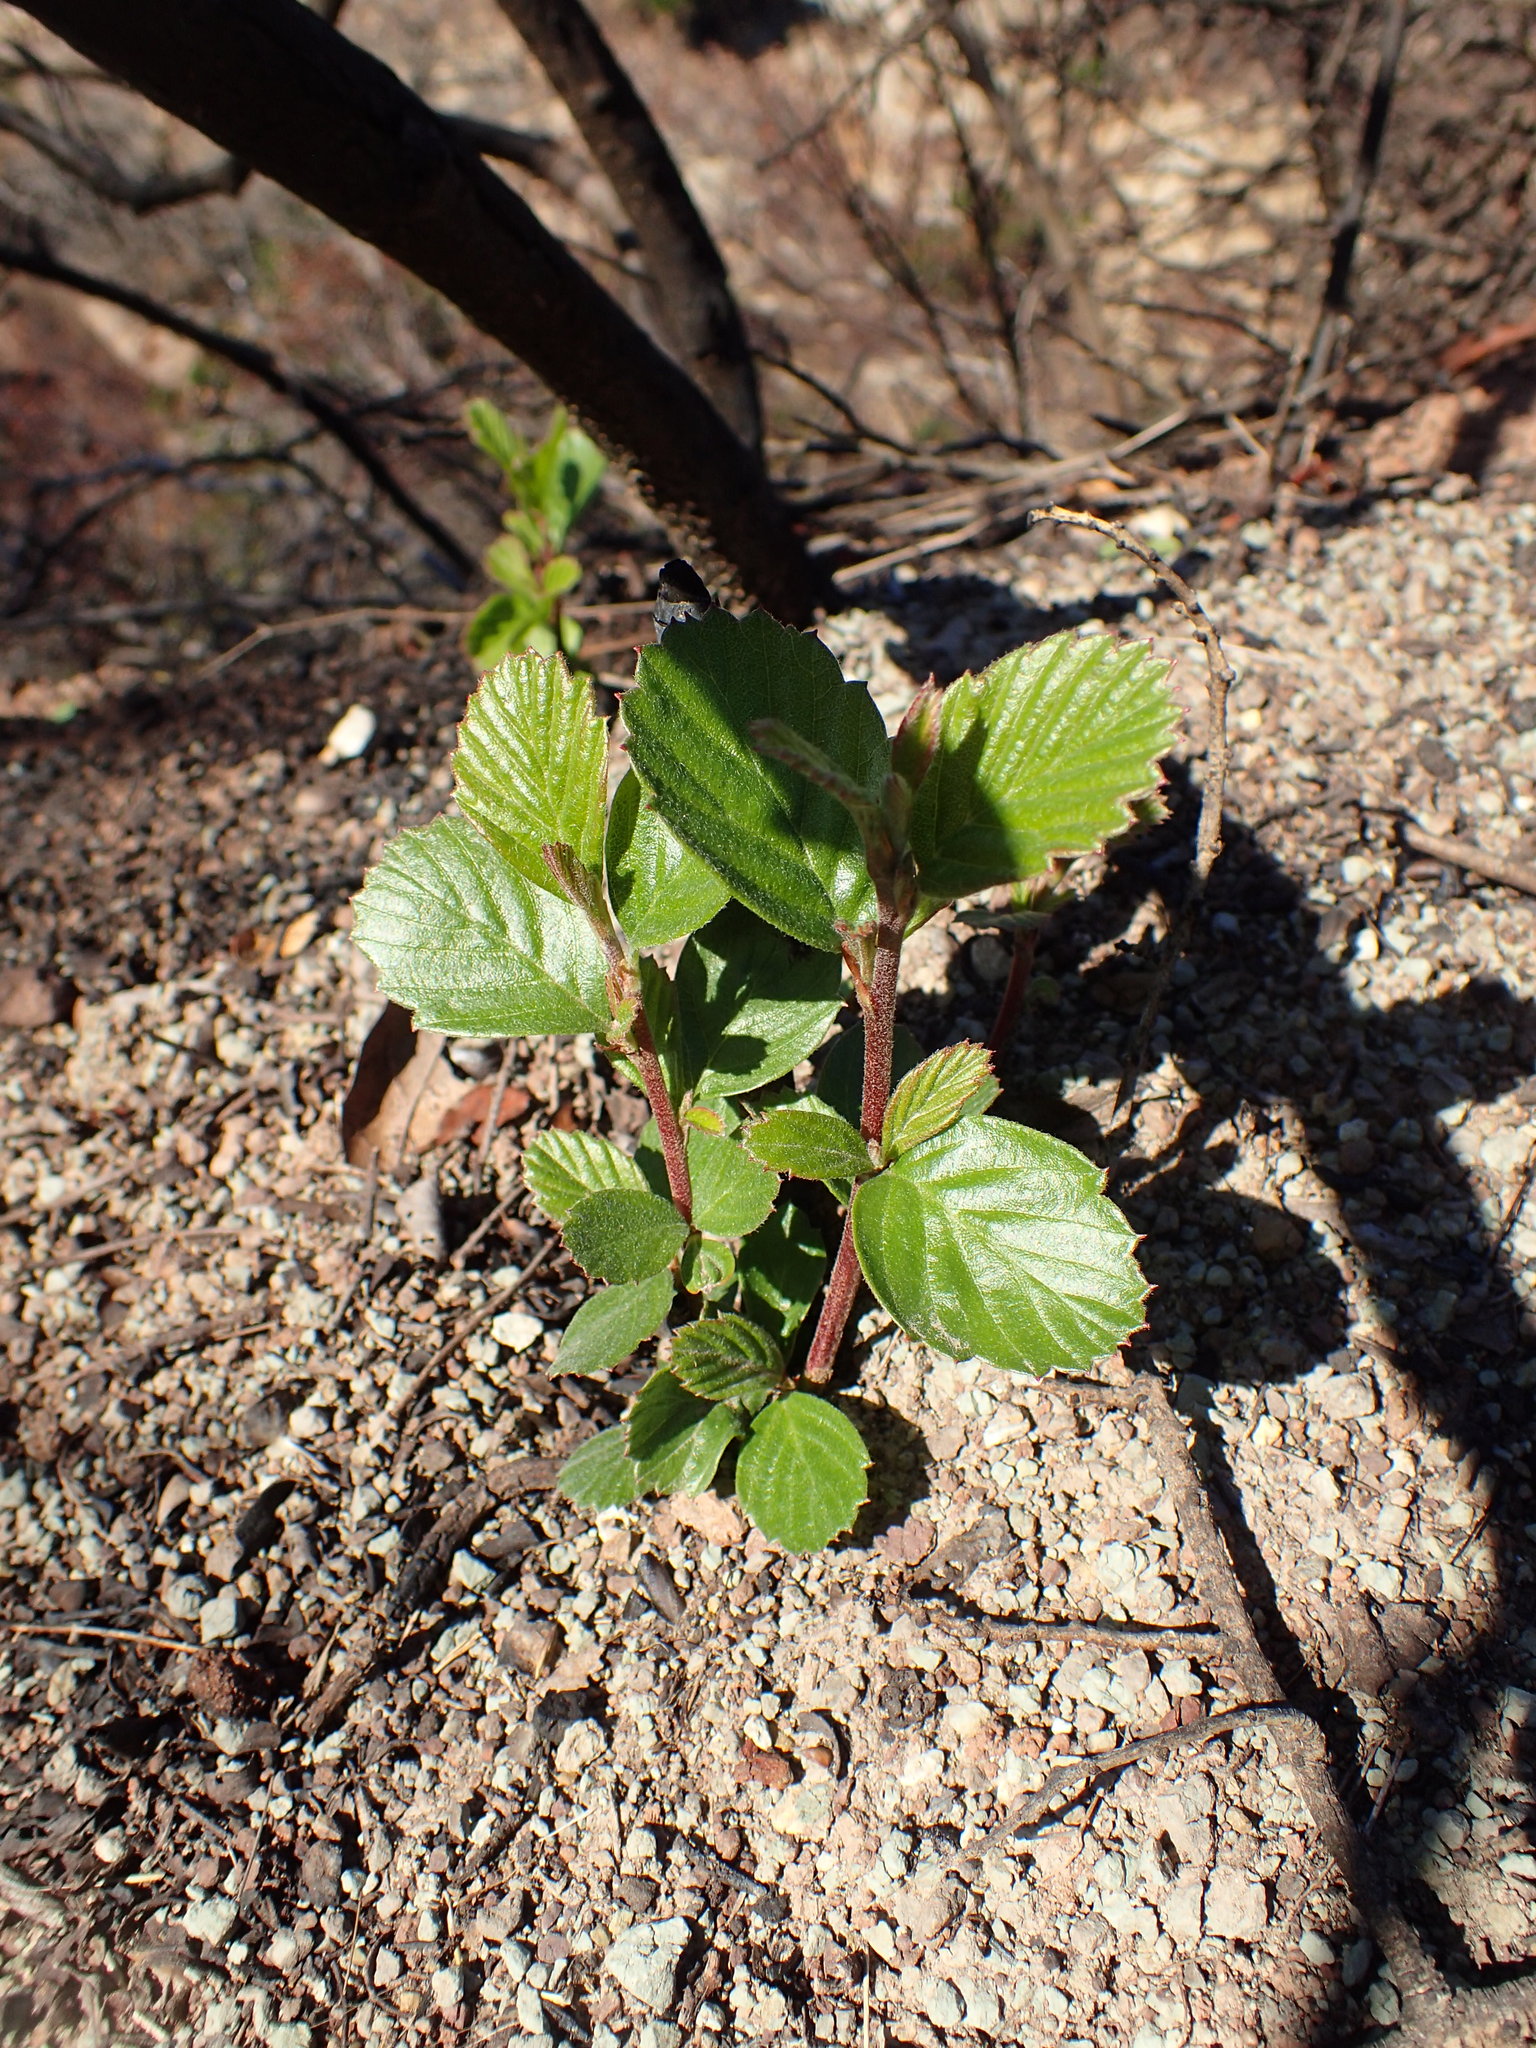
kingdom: Plantae
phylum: Tracheophyta
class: Magnoliopsida
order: Rosales
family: Rosaceae
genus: Cercocarpus
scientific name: Cercocarpus betuloides
